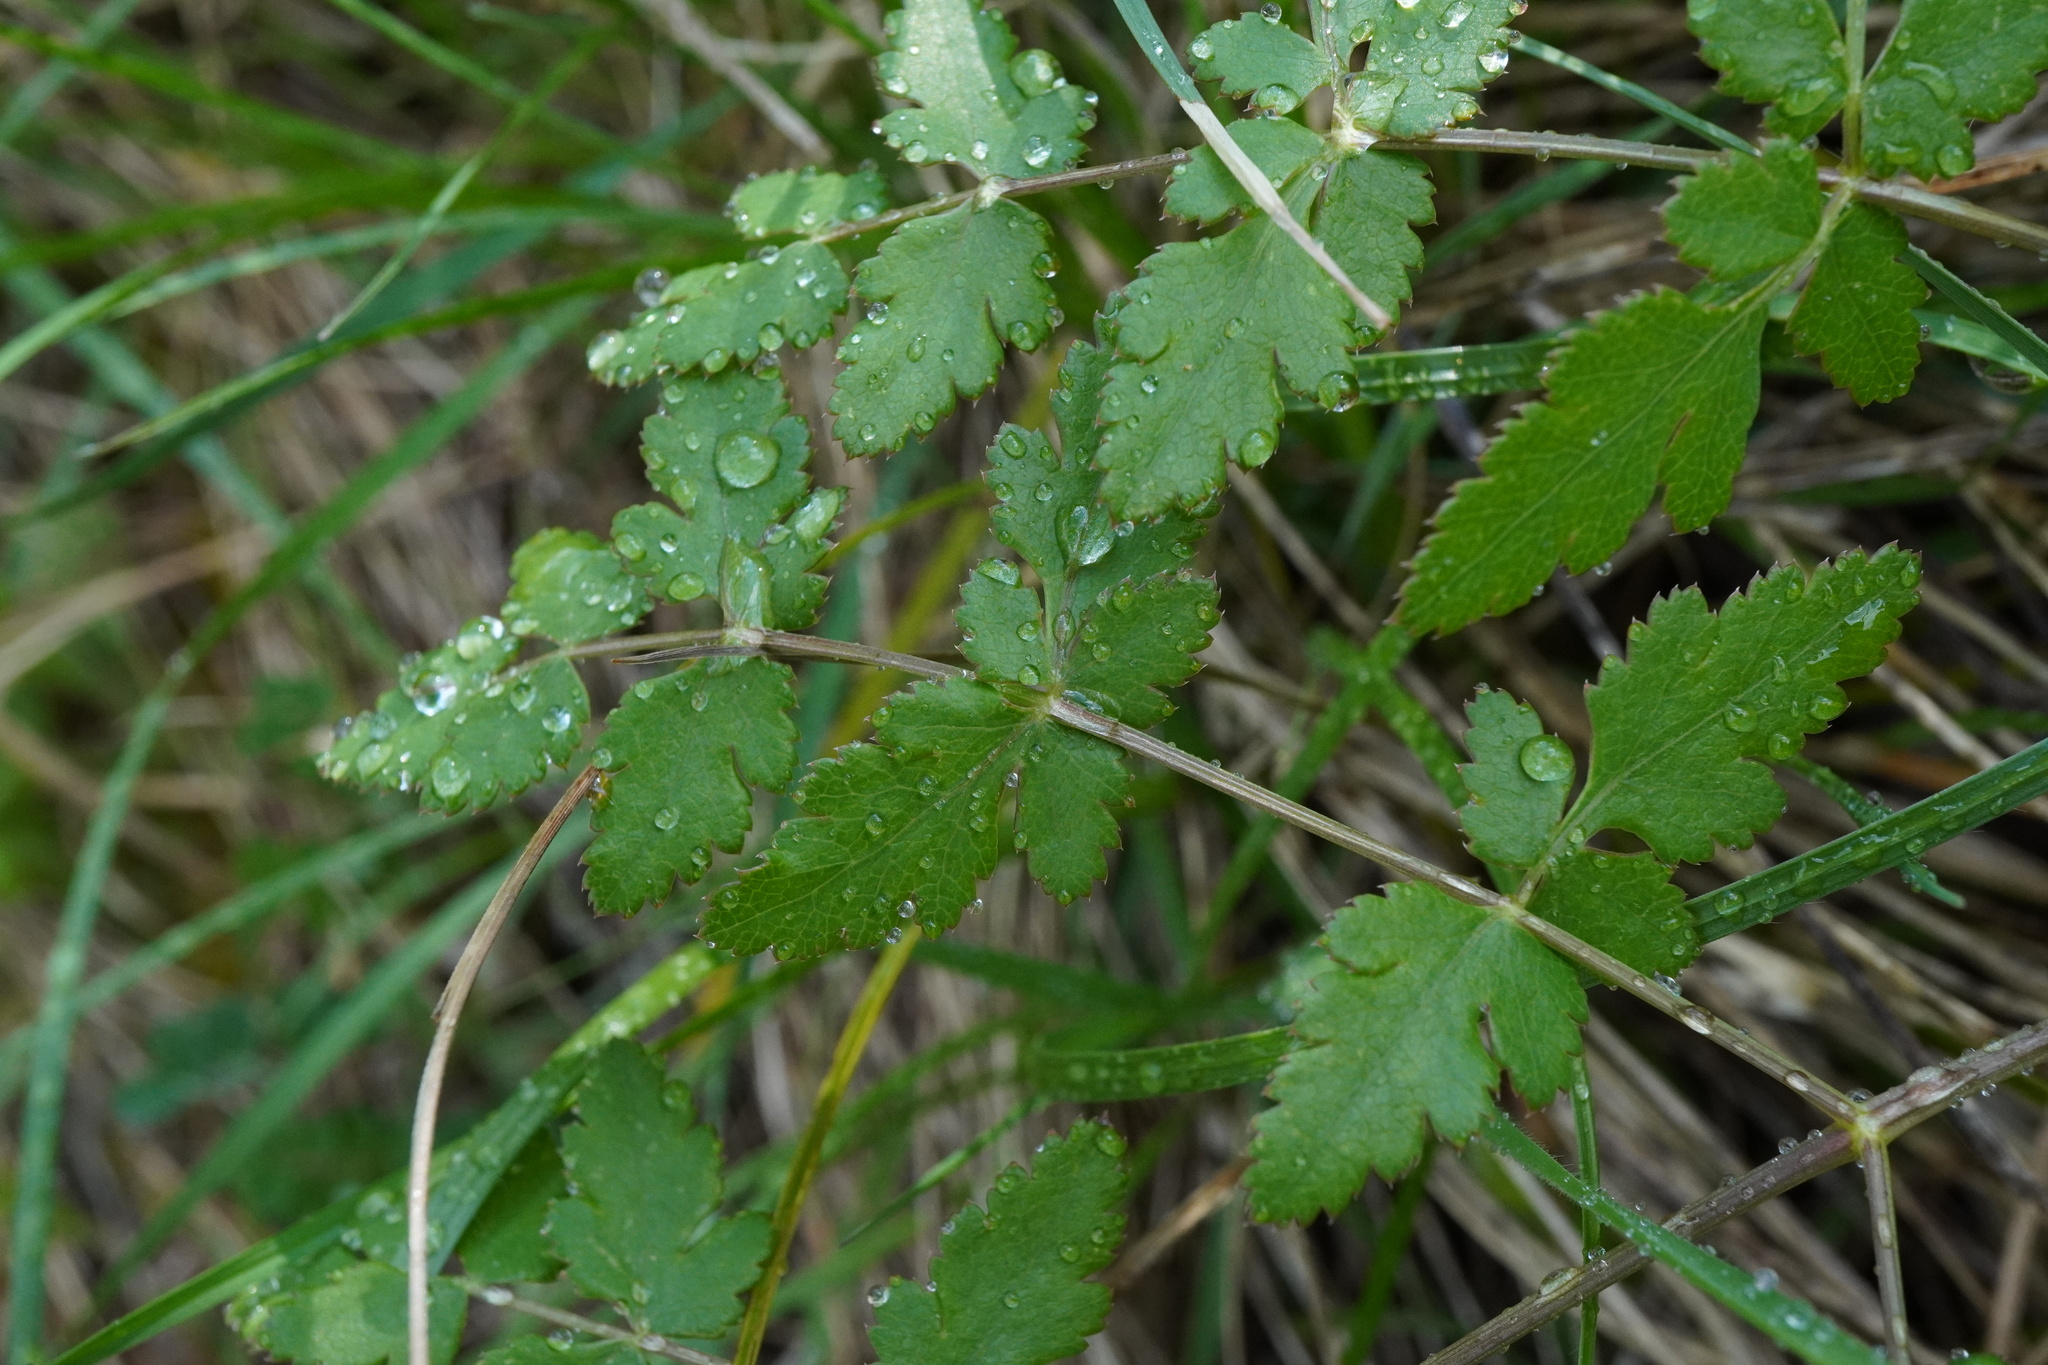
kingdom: Plantae
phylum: Tracheophyta
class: Magnoliopsida
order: Apiales
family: Apiaceae
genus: Cervaria
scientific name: Cervaria rivini
